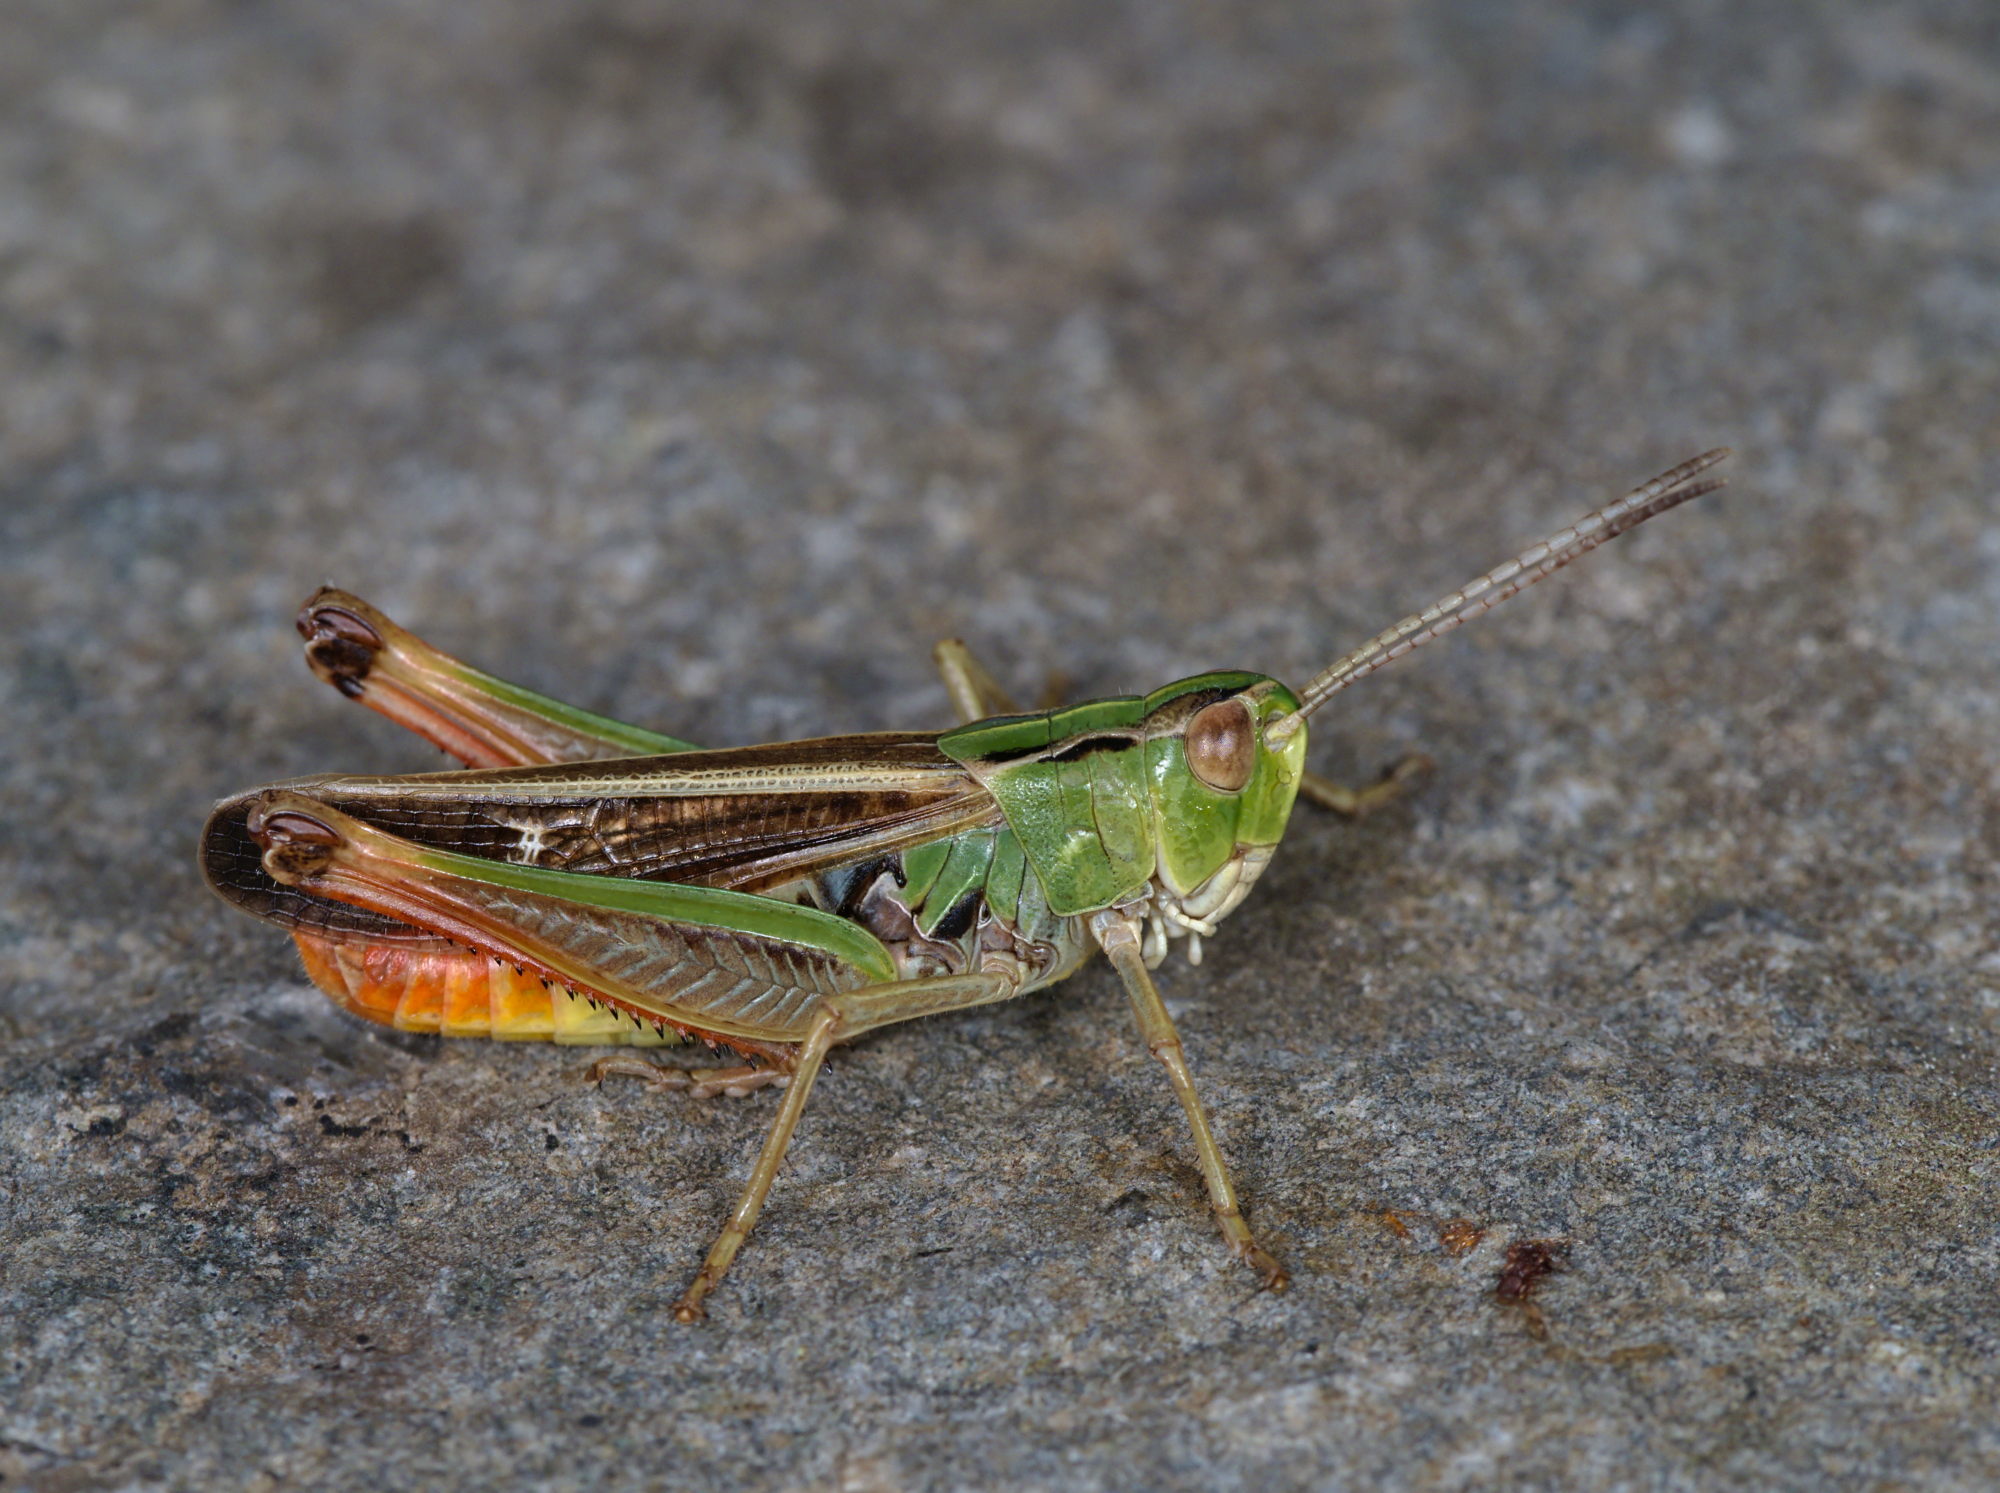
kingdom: Animalia
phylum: Arthropoda
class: Insecta
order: Orthoptera
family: Acrididae
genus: Stenobothrus
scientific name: Stenobothrus lineatus
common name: Stripe-winged grasshopper
